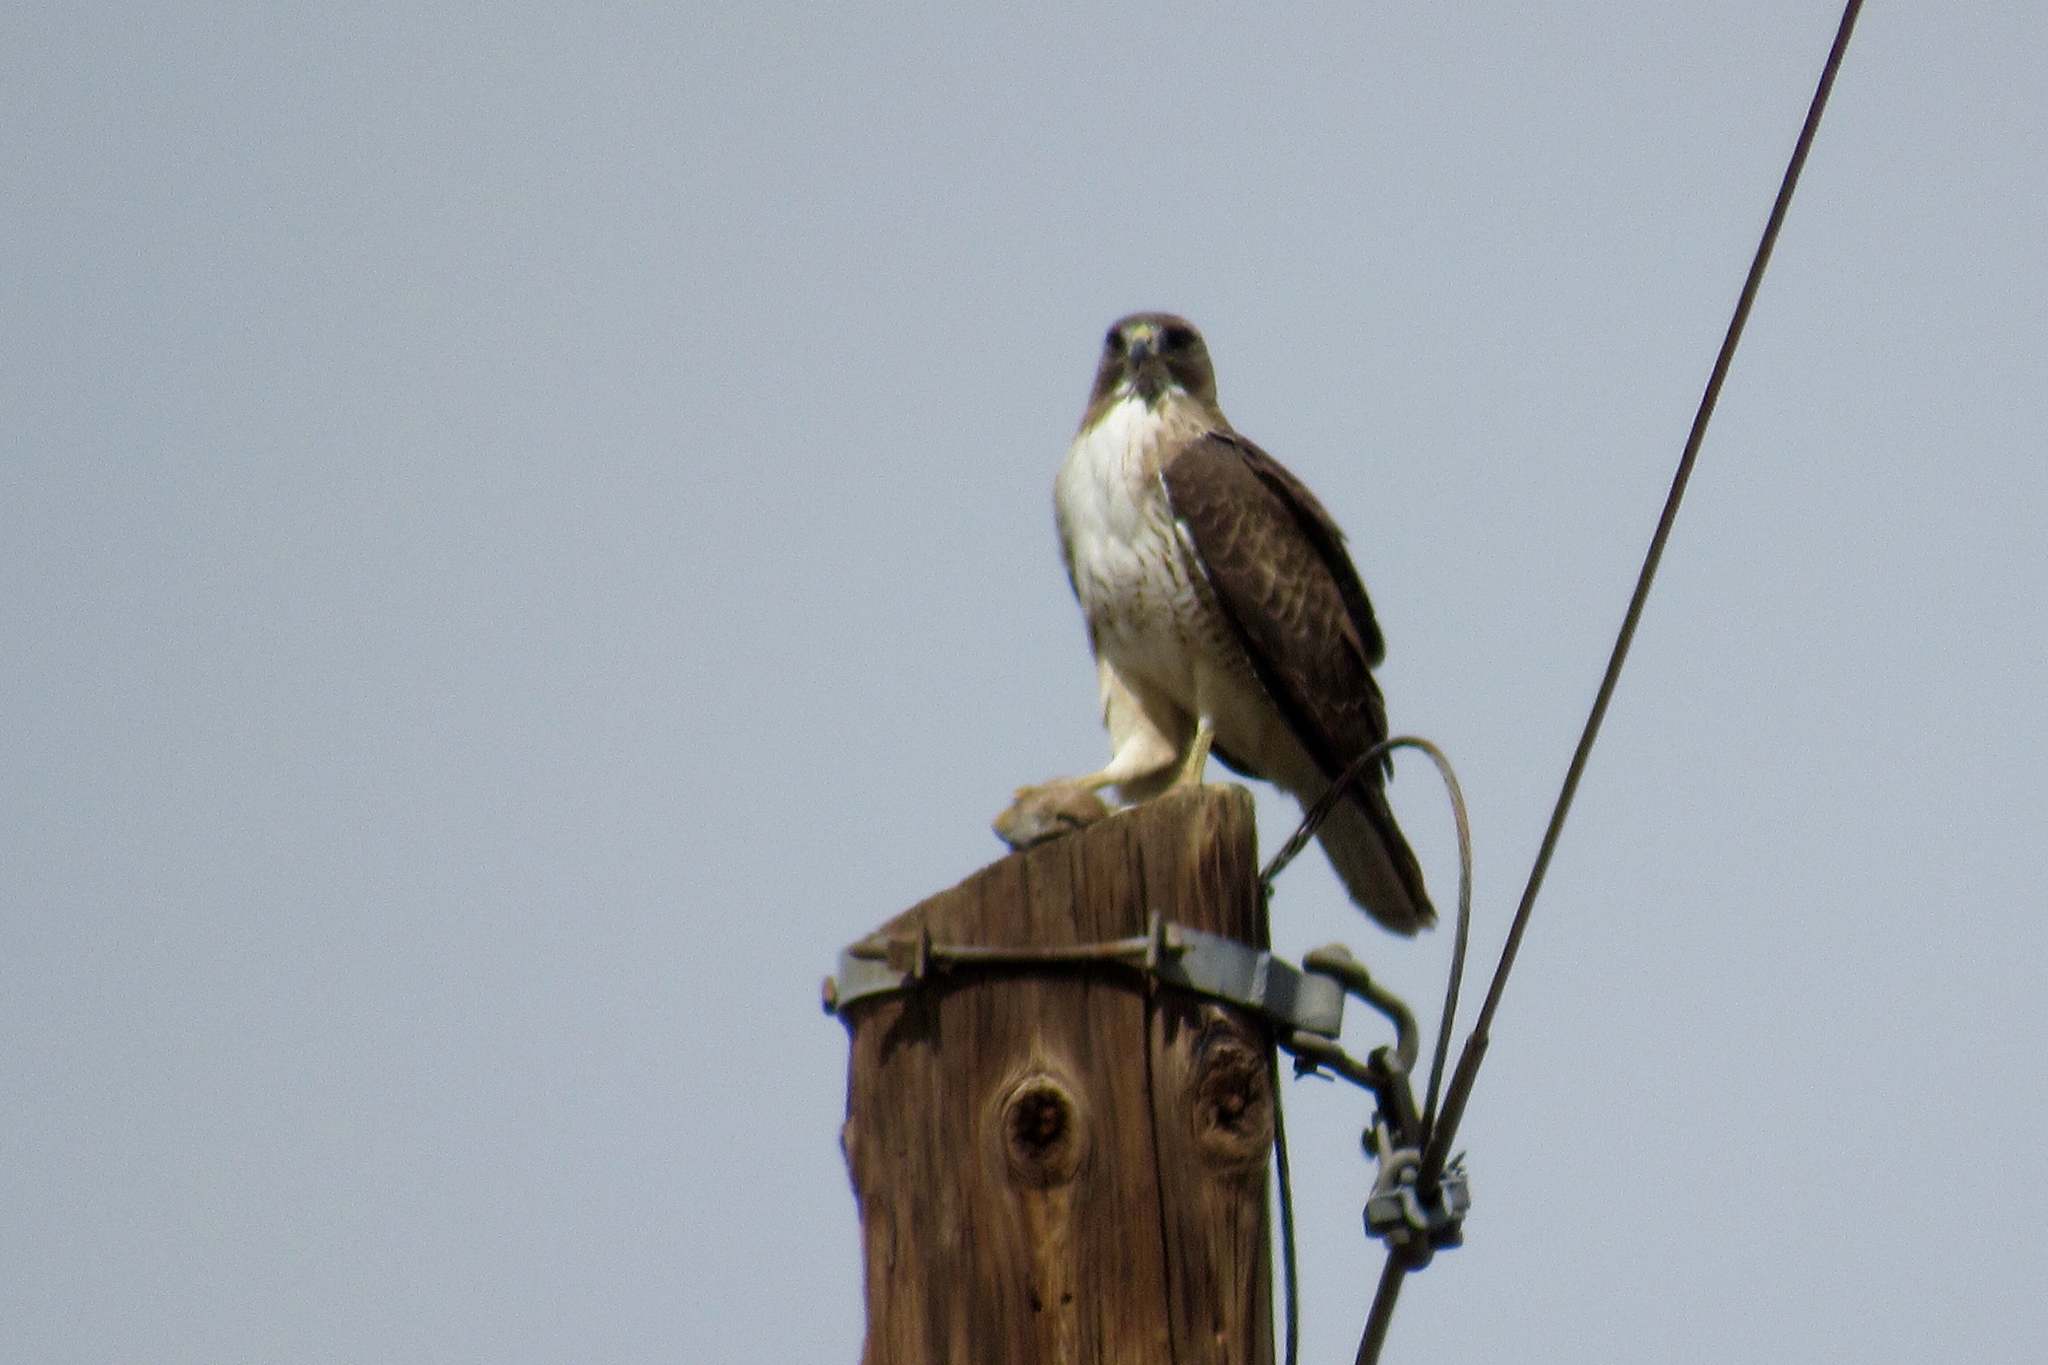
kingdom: Animalia
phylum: Chordata
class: Aves
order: Accipitriformes
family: Accipitridae
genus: Buteo
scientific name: Buteo jamaicensis
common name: Red-tailed hawk
